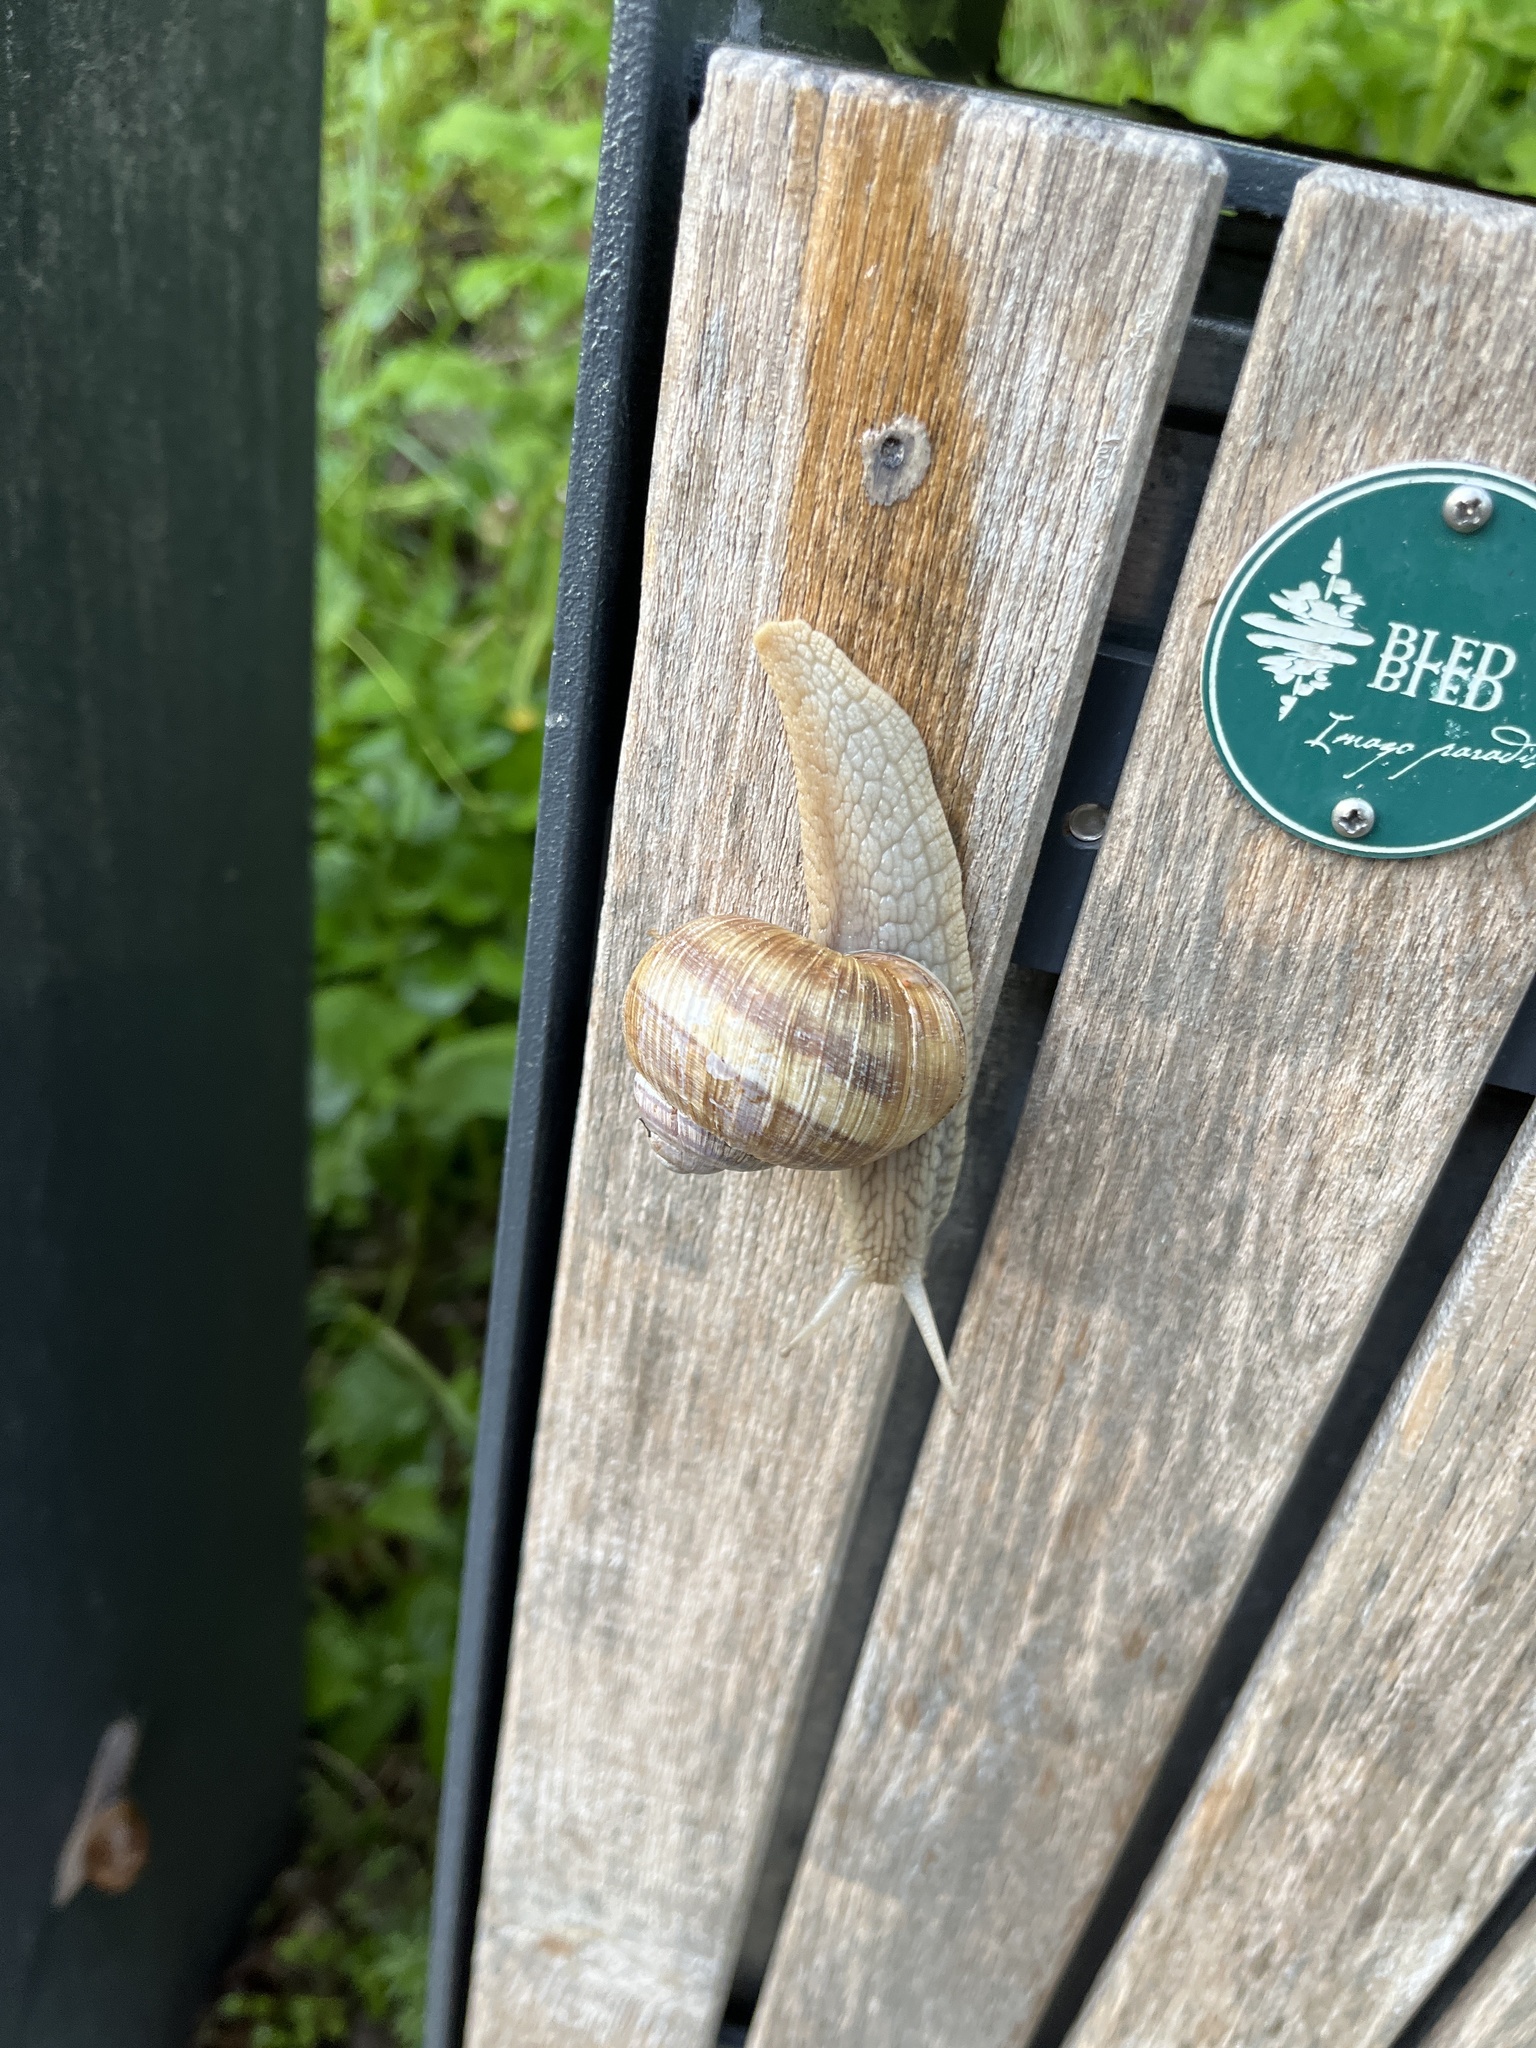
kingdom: Animalia
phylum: Mollusca
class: Gastropoda
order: Stylommatophora
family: Helicidae
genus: Helix
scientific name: Helix pomatia
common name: Roman snail
